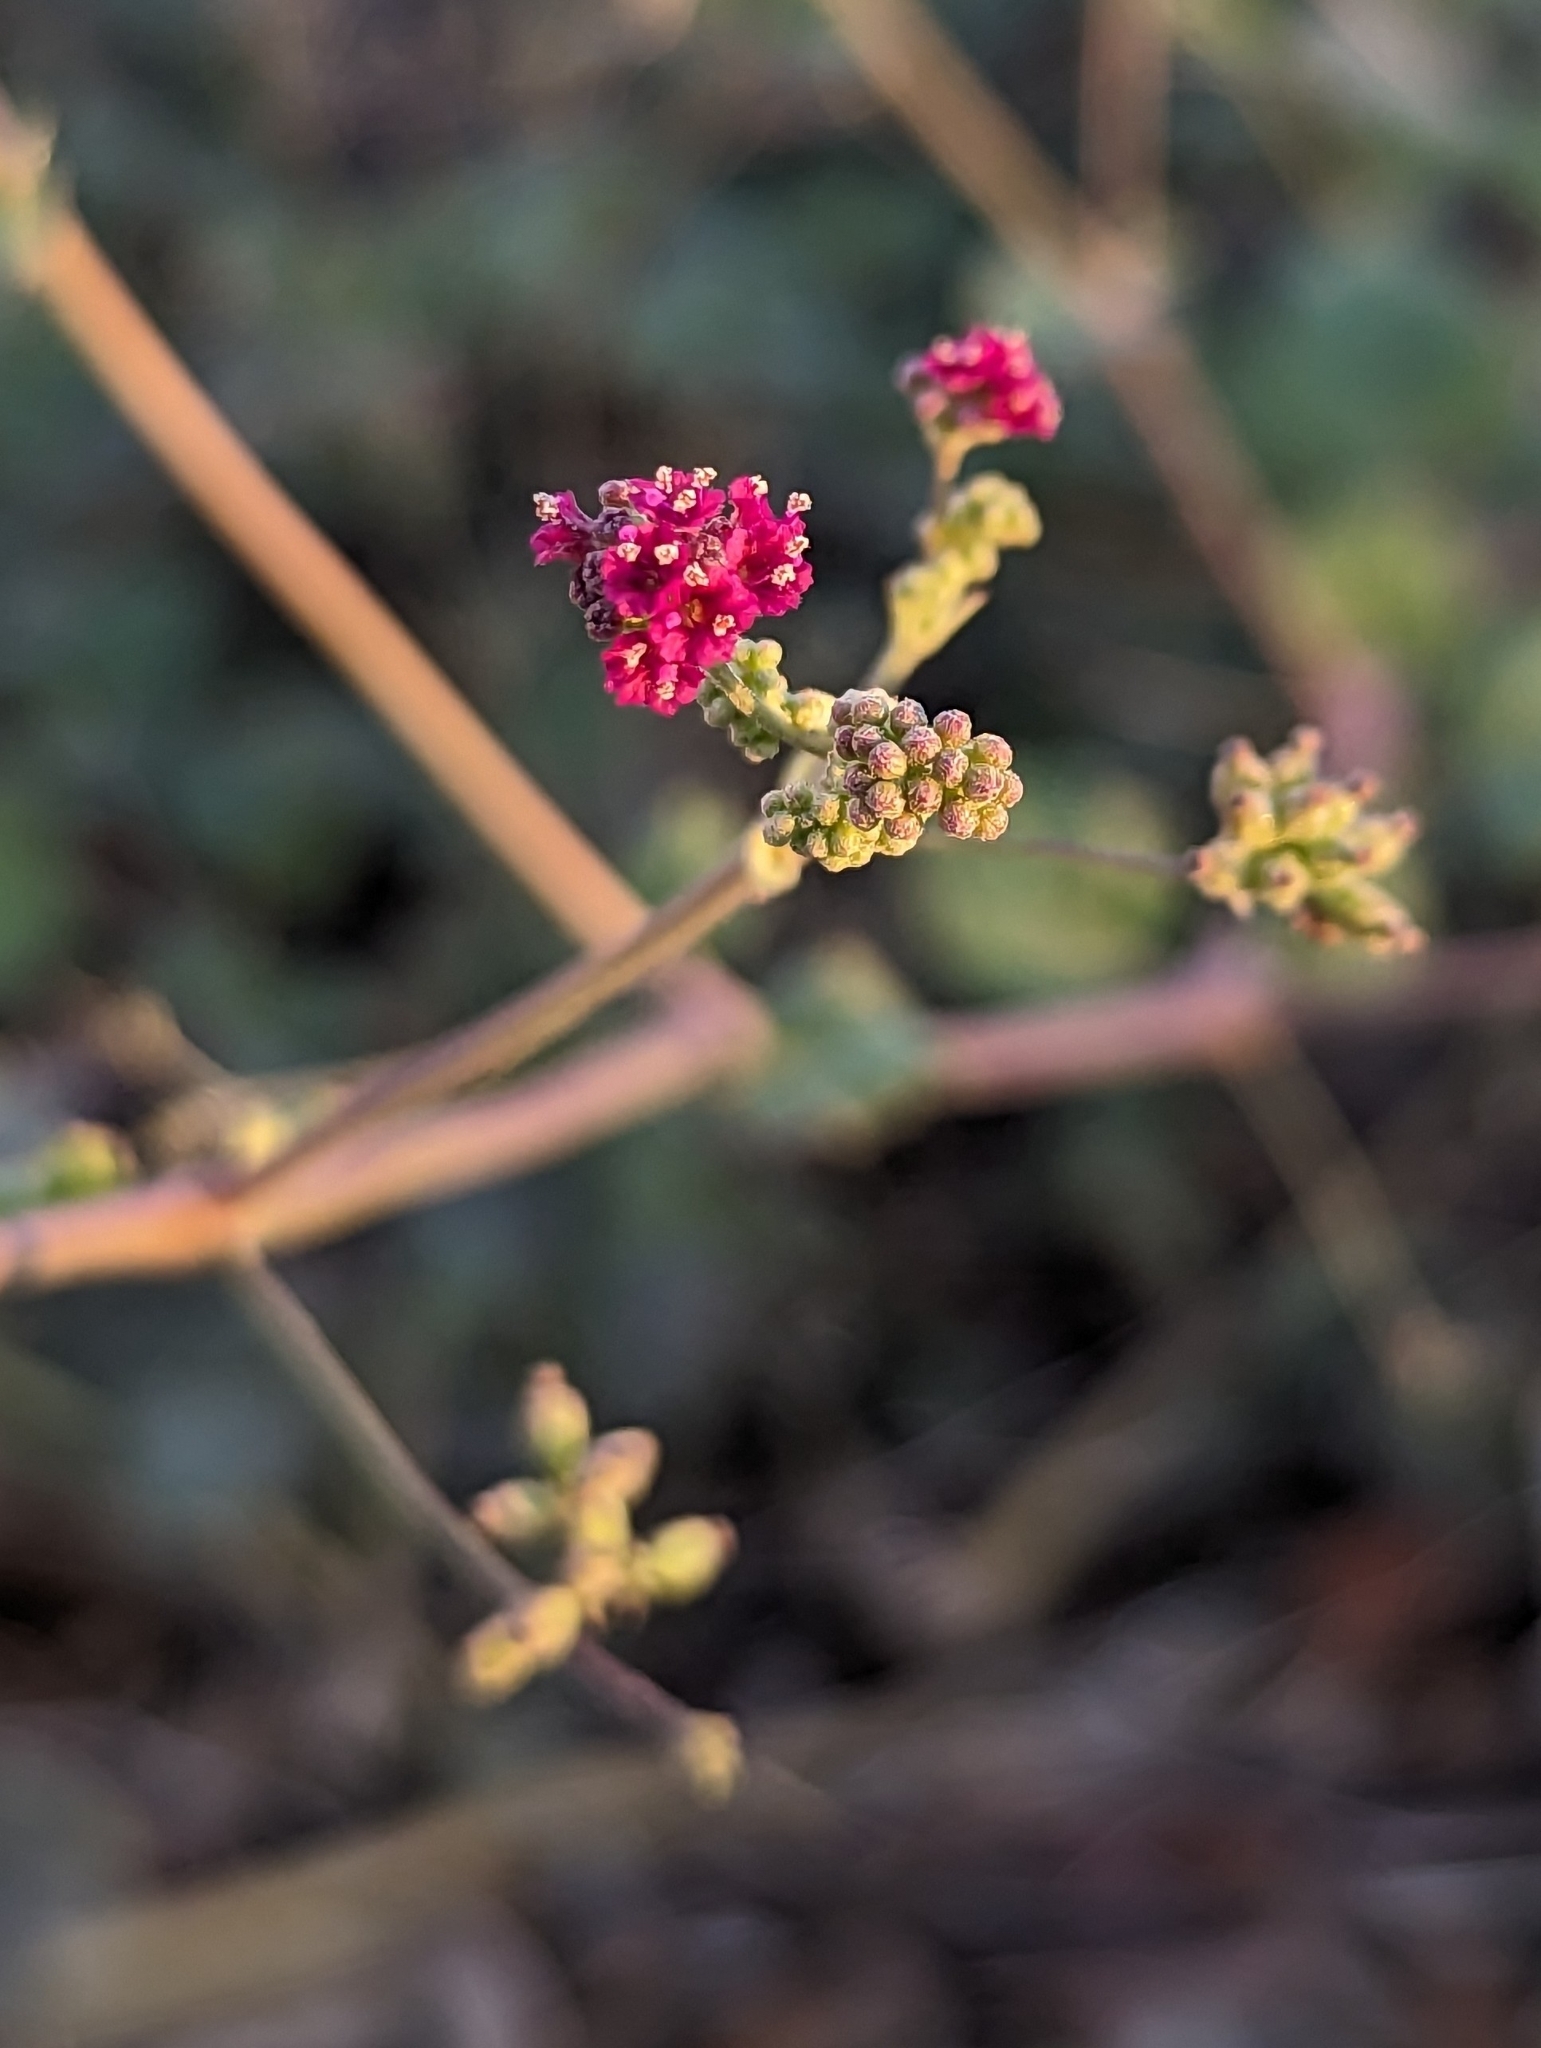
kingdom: Plantae
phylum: Tracheophyta
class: Magnoliopsida
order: Caryophyllales
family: Nyctaginaceae
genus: Boerhavia
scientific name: Boerhavia coccinea
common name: Scarlet spiderling
